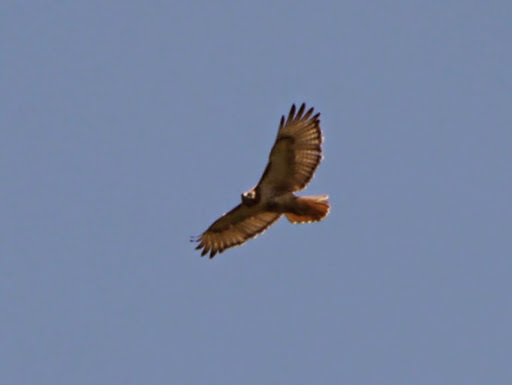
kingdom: Animalia
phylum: Chordata
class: Aves
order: Accipitriformes
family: Accipitridae
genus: Buteo
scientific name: Buteo jamaicensis
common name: Red-tailed hawk
